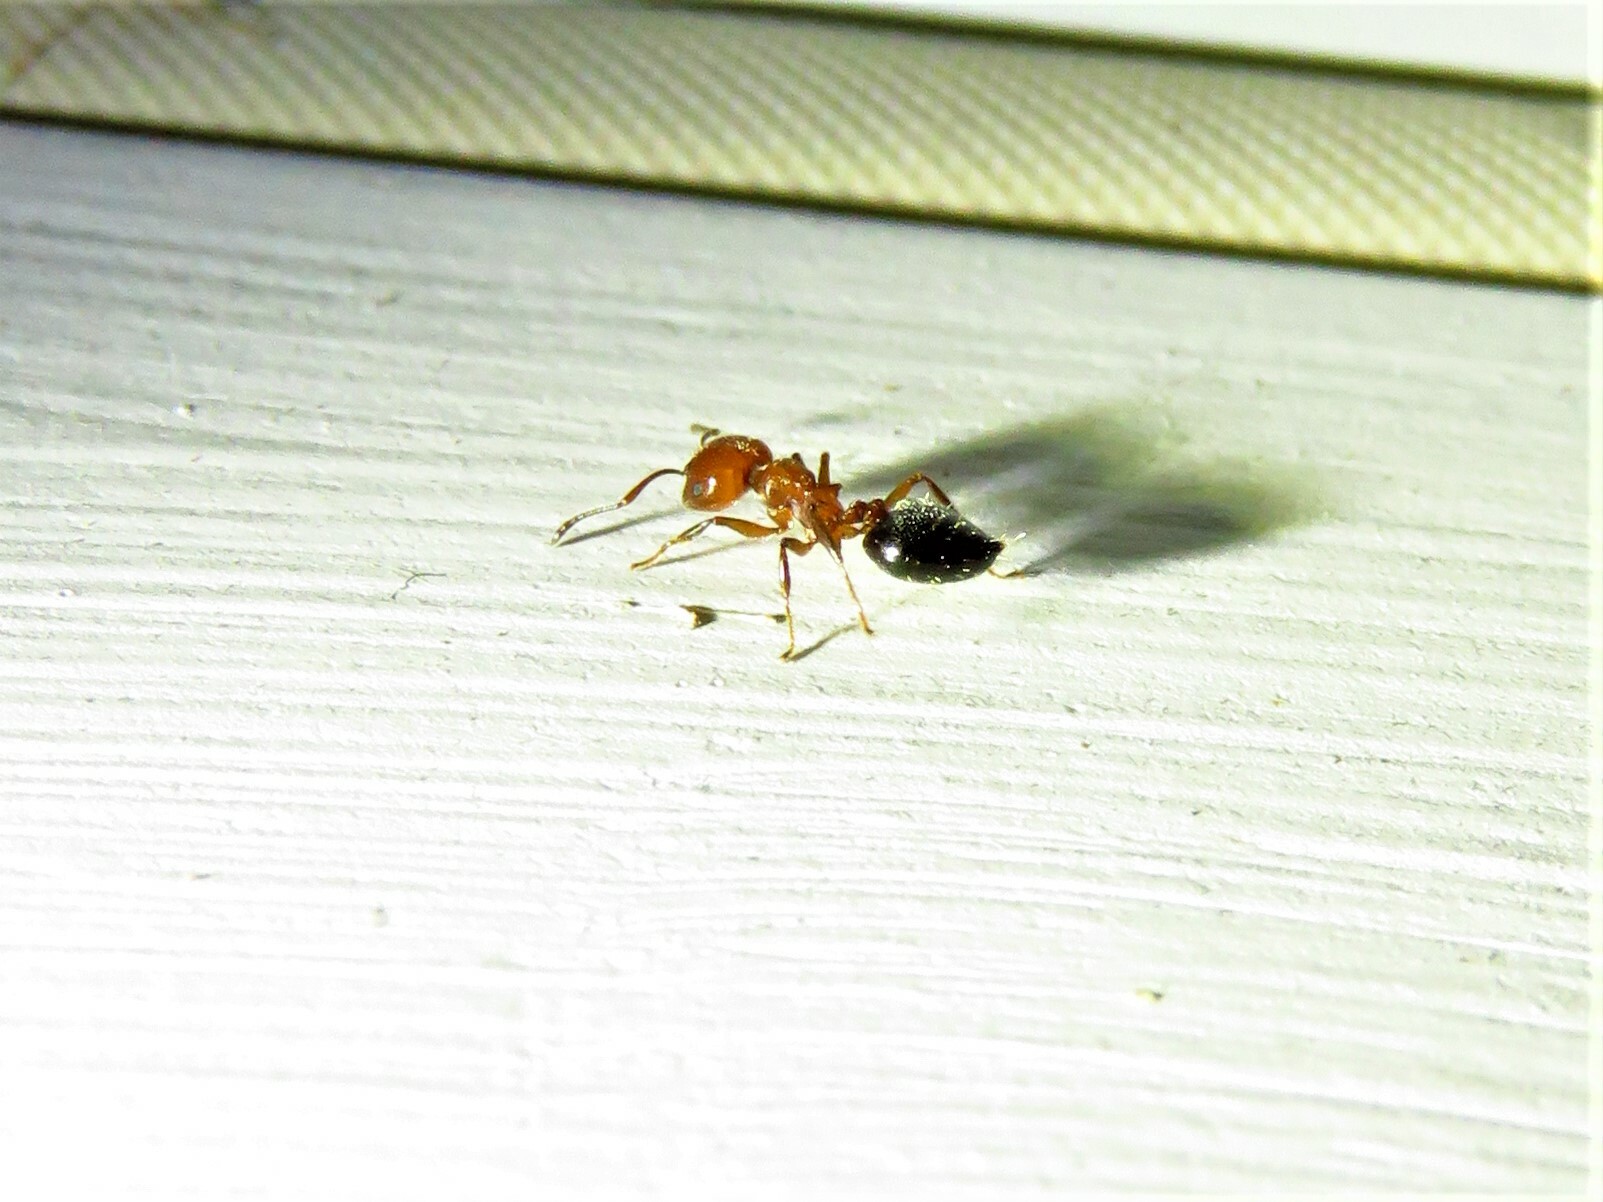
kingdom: Animalia
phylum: Arthropoda
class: Insecta
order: Hymenoptera
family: Formicidae
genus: Crematogaster
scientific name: Crematogaster laeviuscula
